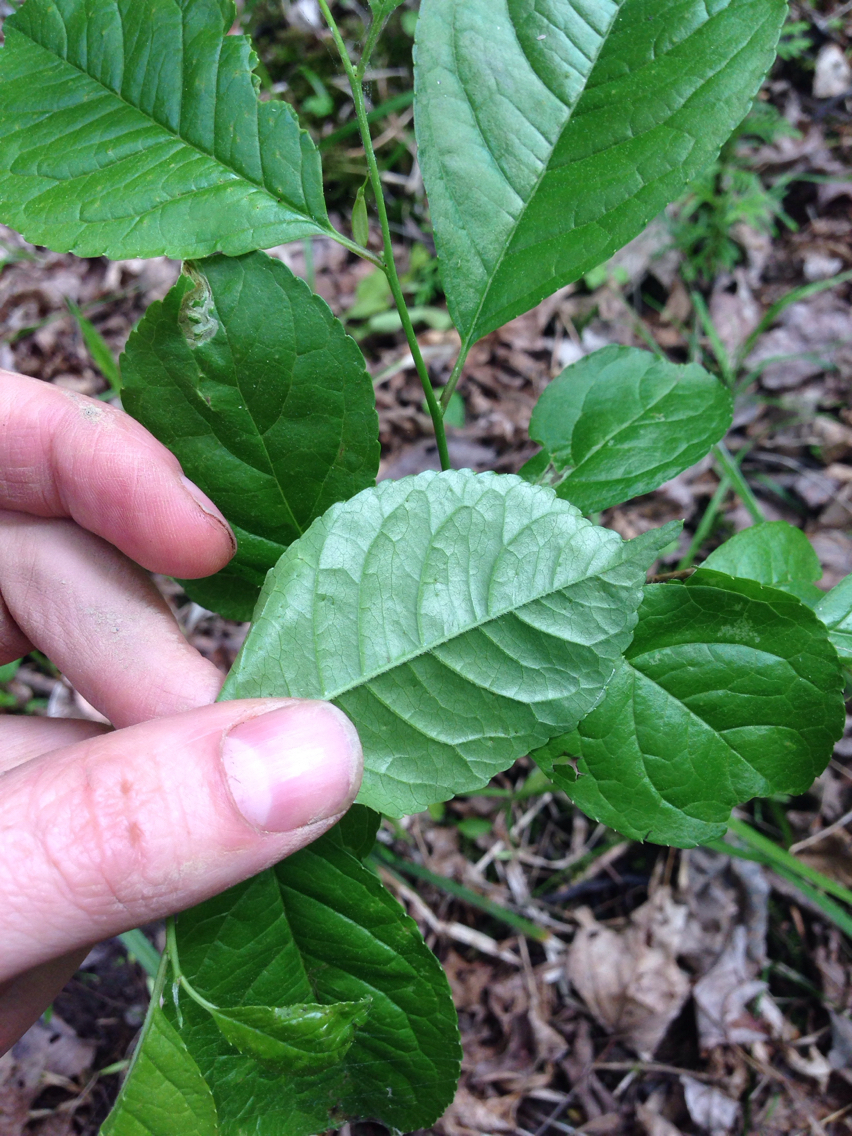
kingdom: Plantae
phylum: Tracheophyta
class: Magnoliopsida
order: Celastrales
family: Celastraceae
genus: Celastrus
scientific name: Celastrus orbiculatus
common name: Oriental bittersweet
